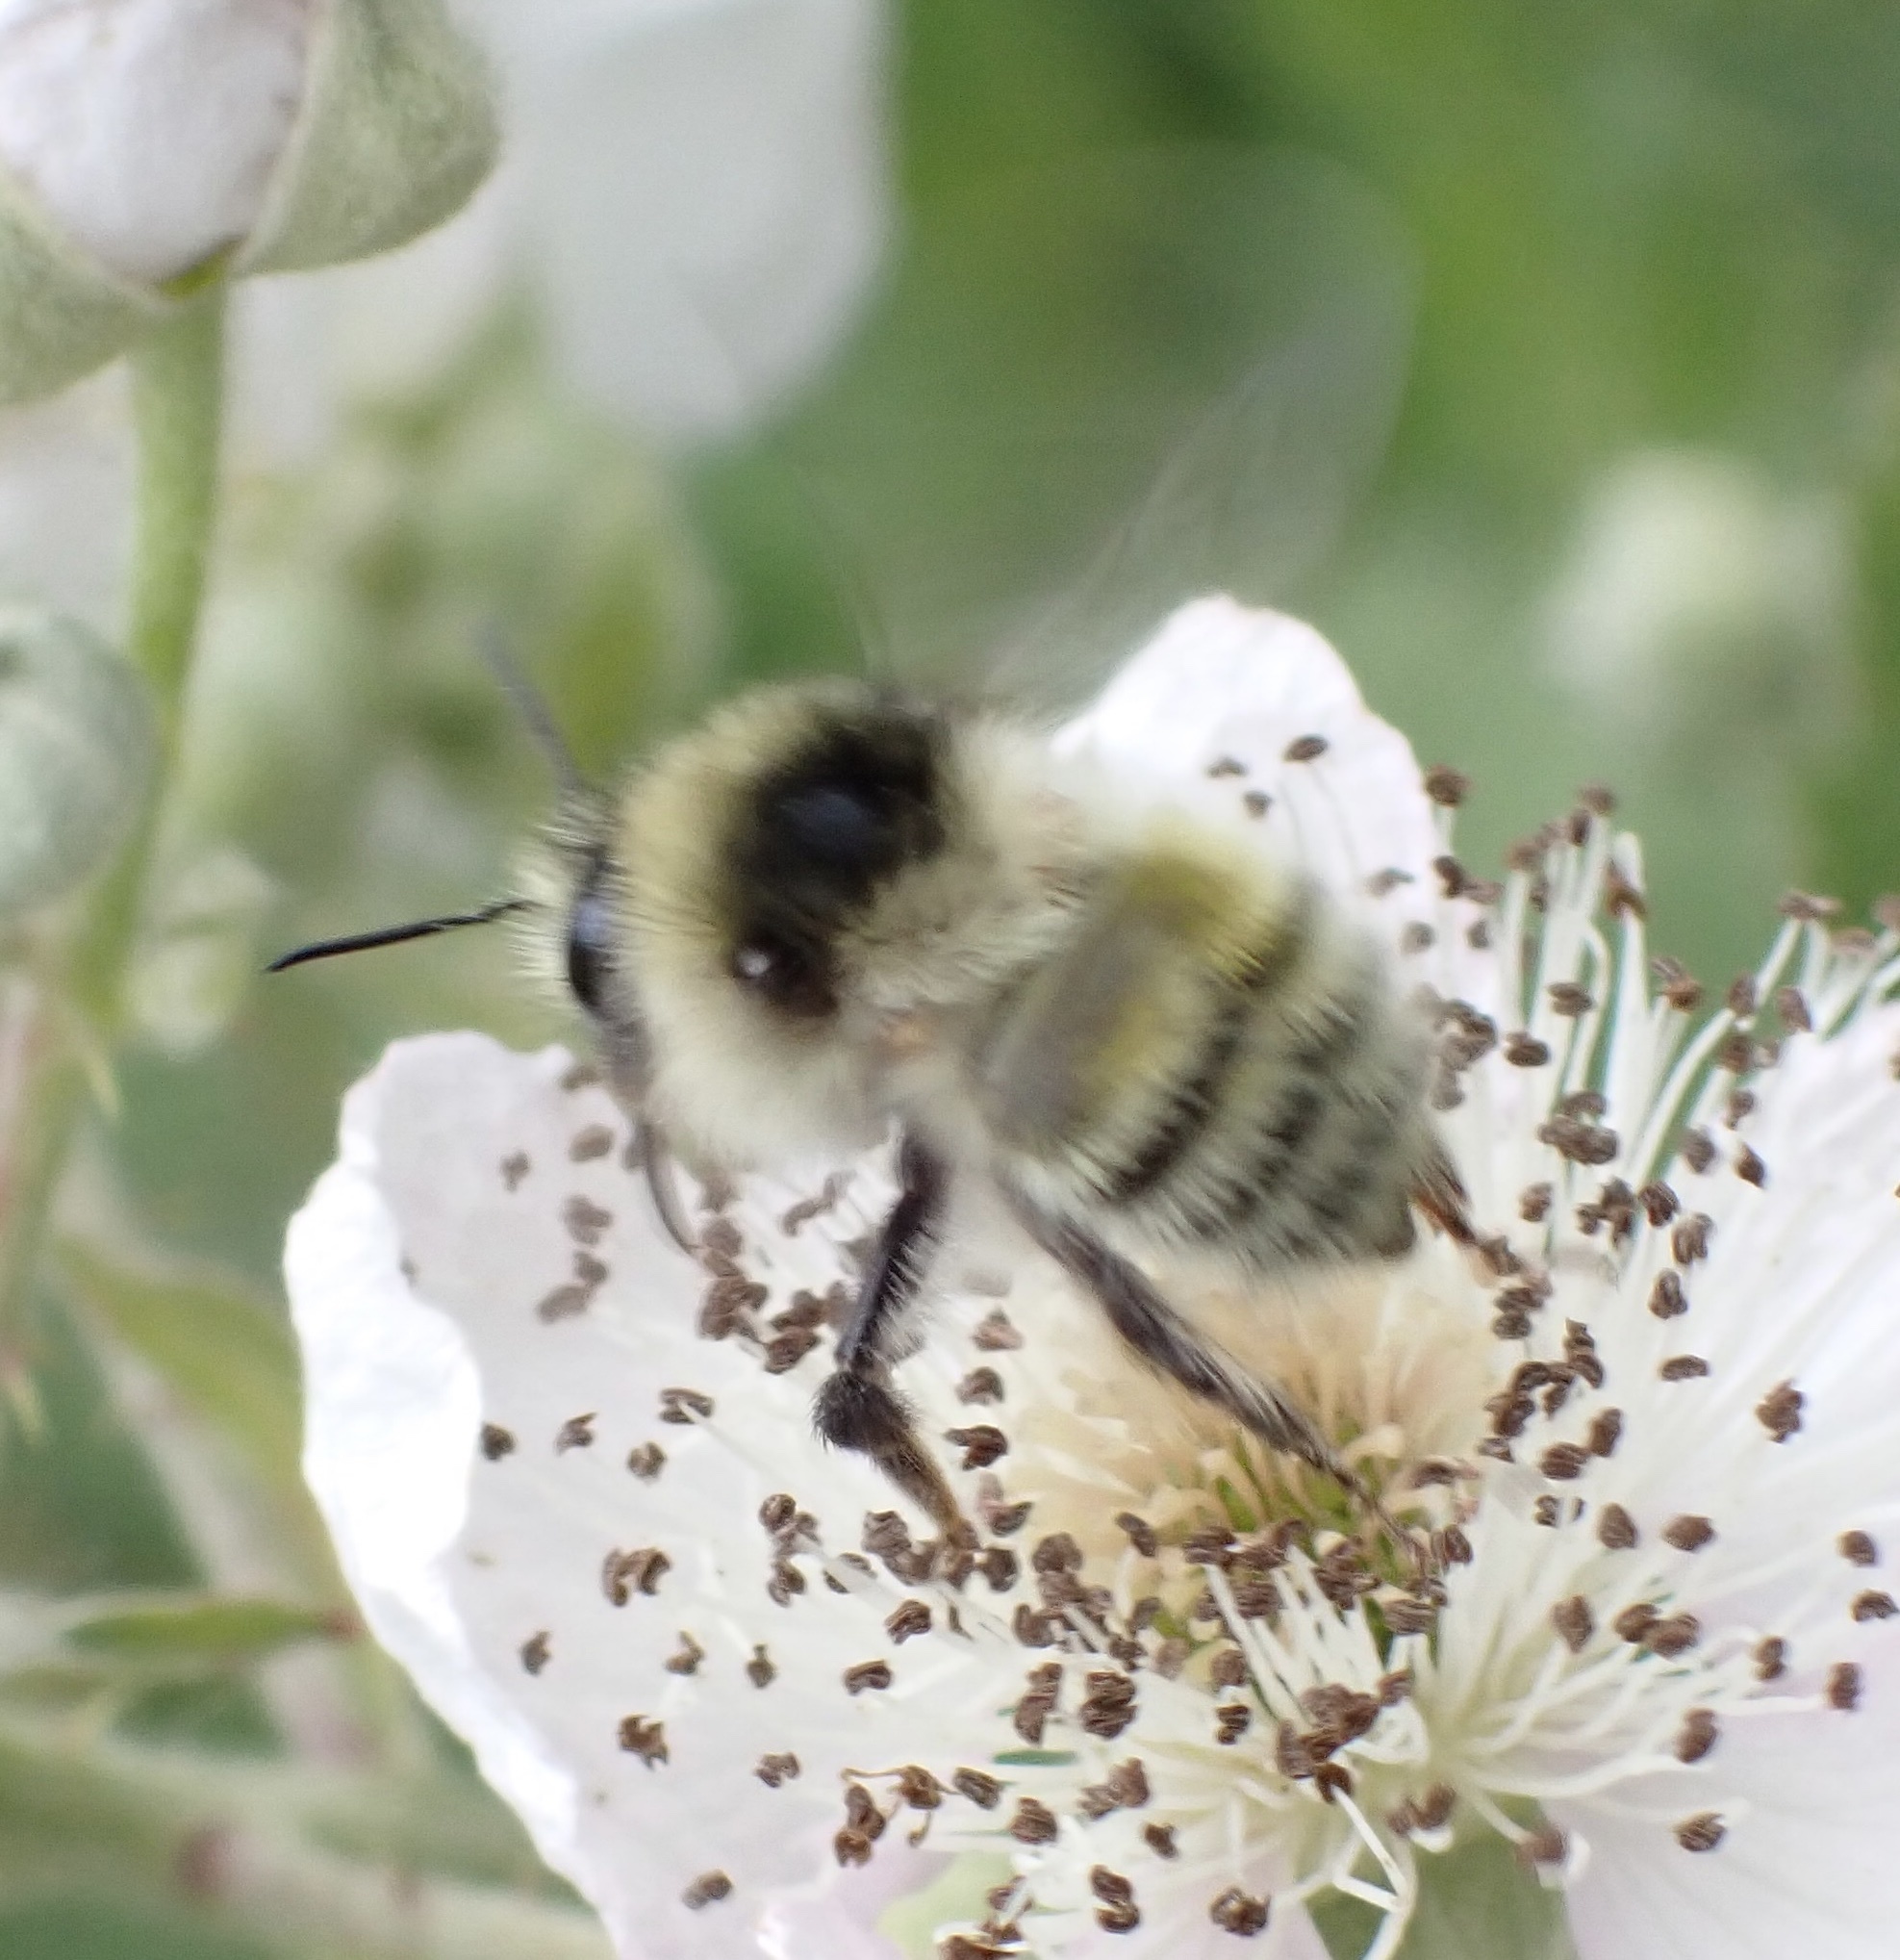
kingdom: Animalia
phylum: Arthropoda
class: Insecta
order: Hymenoptera
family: Apidae
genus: Bombus
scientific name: Bombus veteranus
